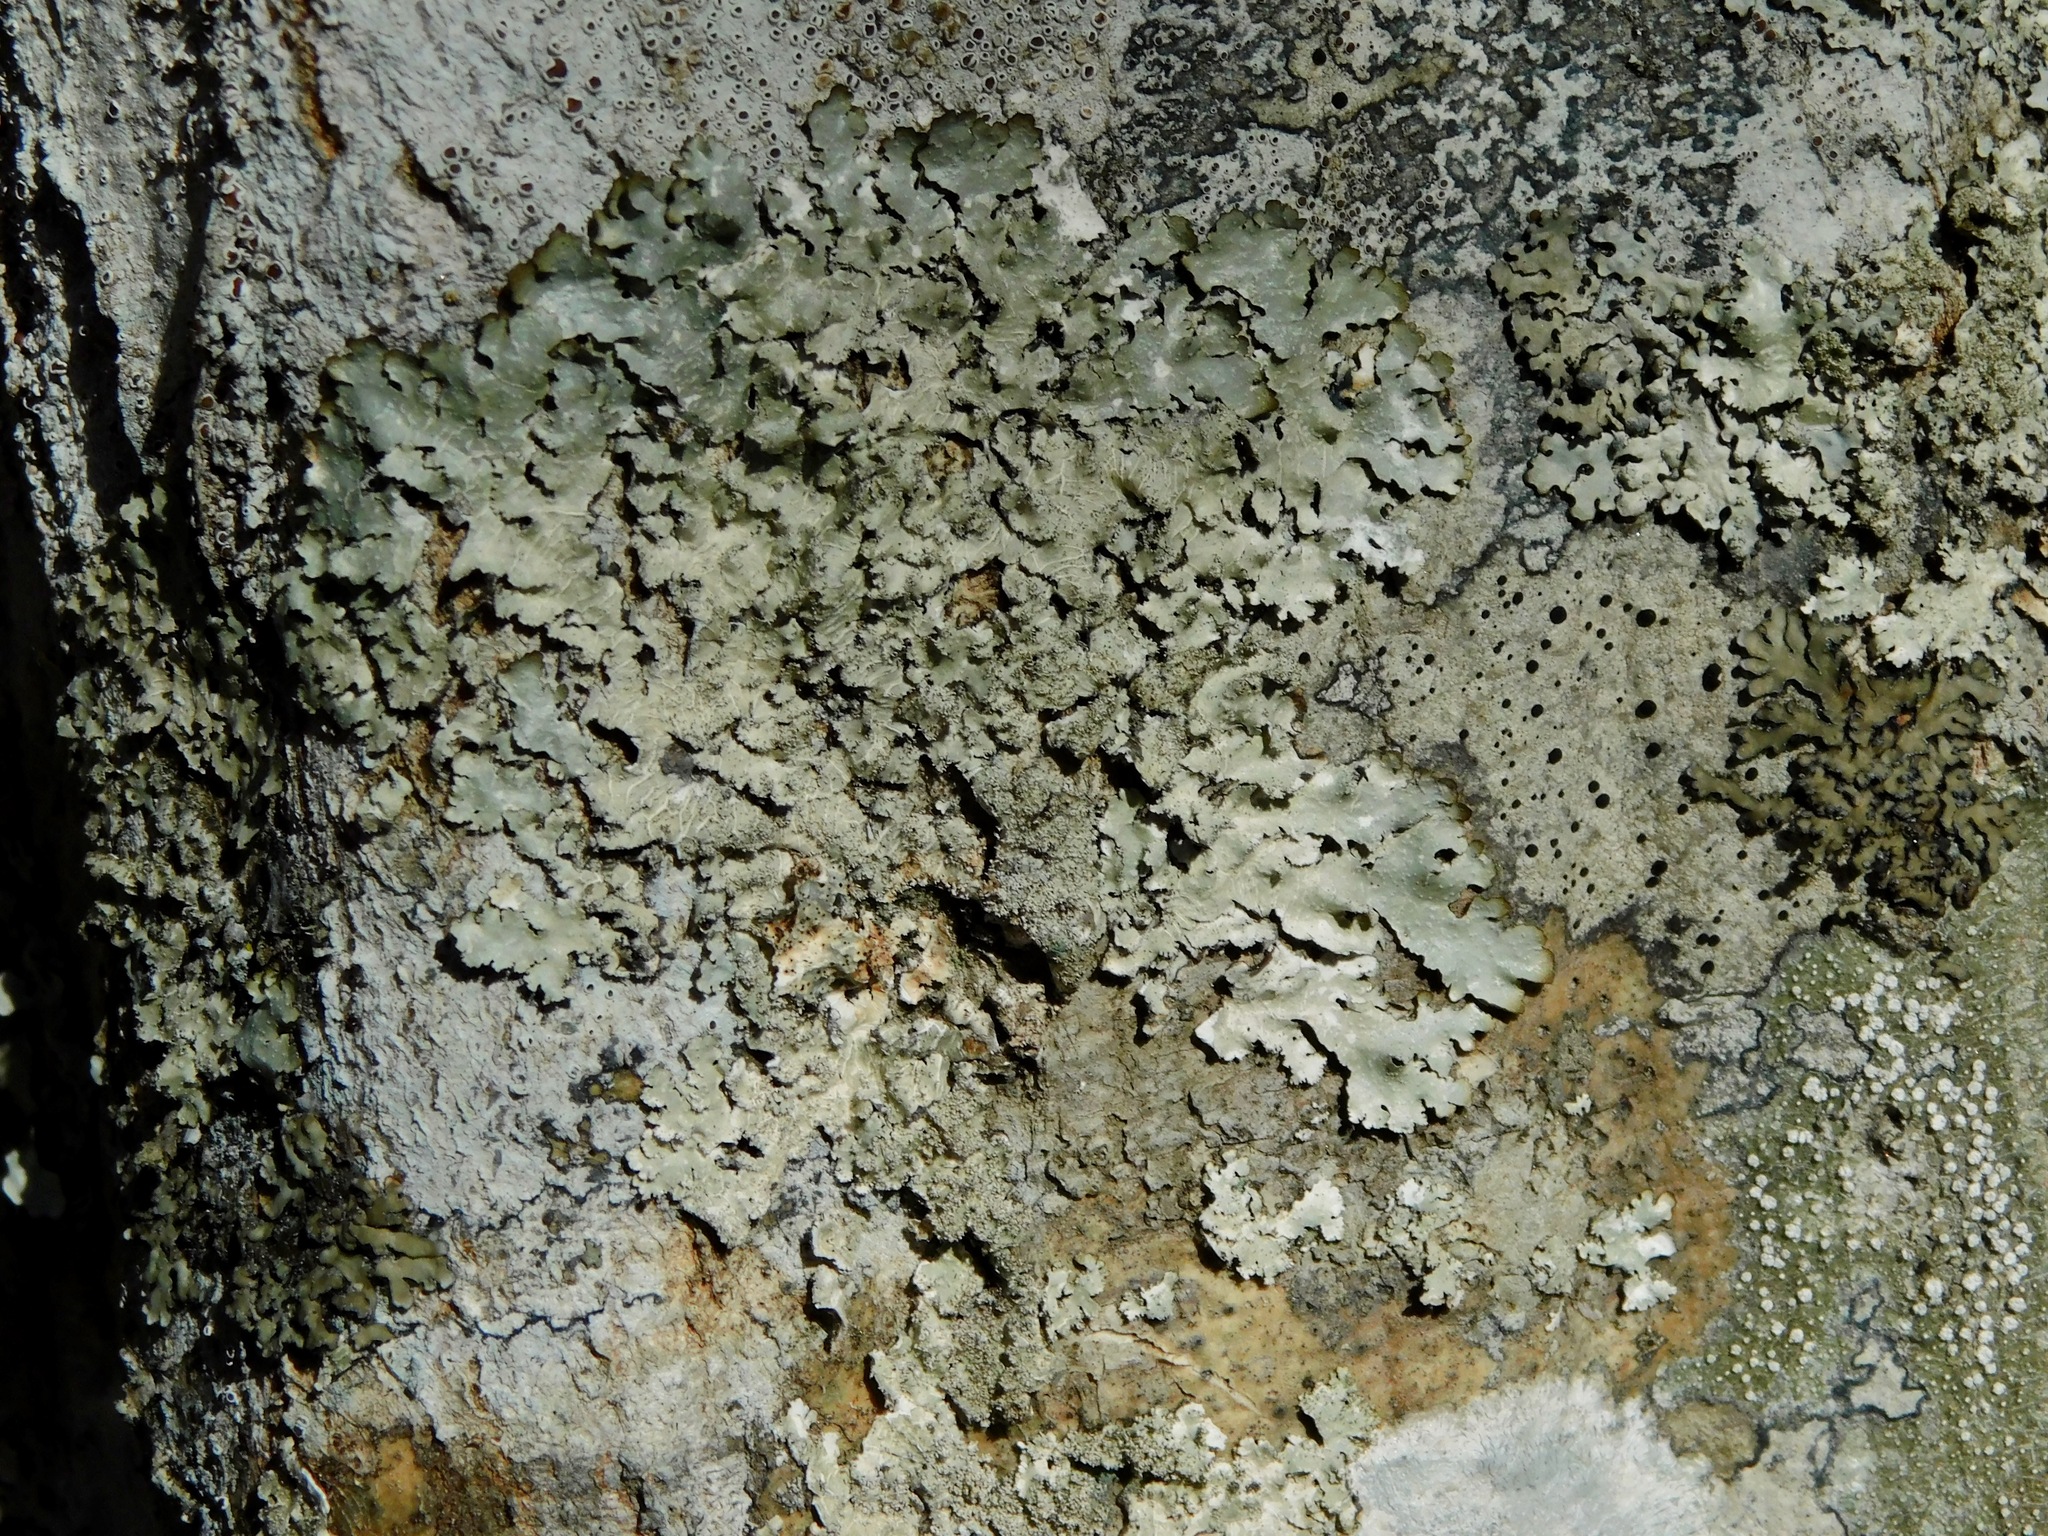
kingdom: Fungi
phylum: Ascomycota
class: Lecanoromycetes
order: Lecanorales
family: Parmeliaceae
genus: Parmelia
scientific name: Parmelia sulcata
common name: Netted shield lichen
